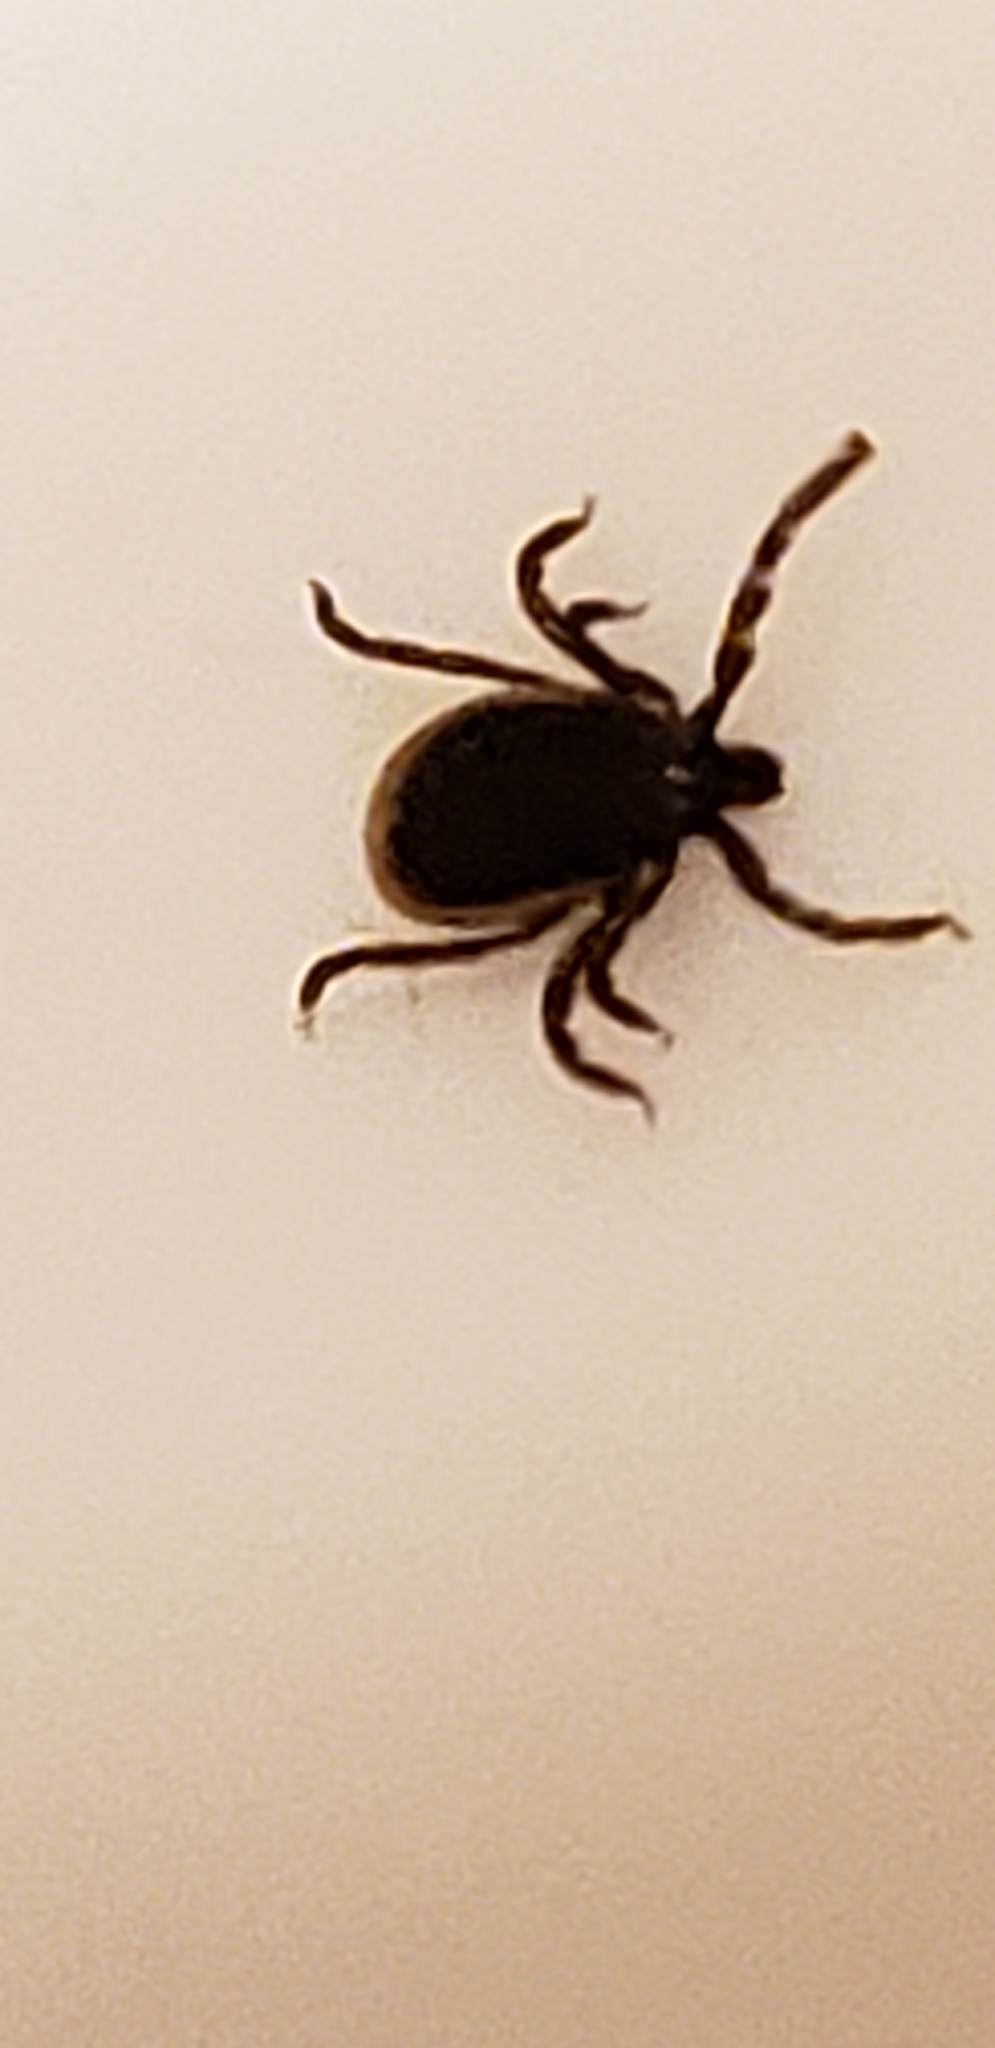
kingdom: Animalia
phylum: Arthropoda
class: Arachnida
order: Ixodida
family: Ixodidae
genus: Ixodes
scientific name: Ixodes scapularis
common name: Black legged tick
